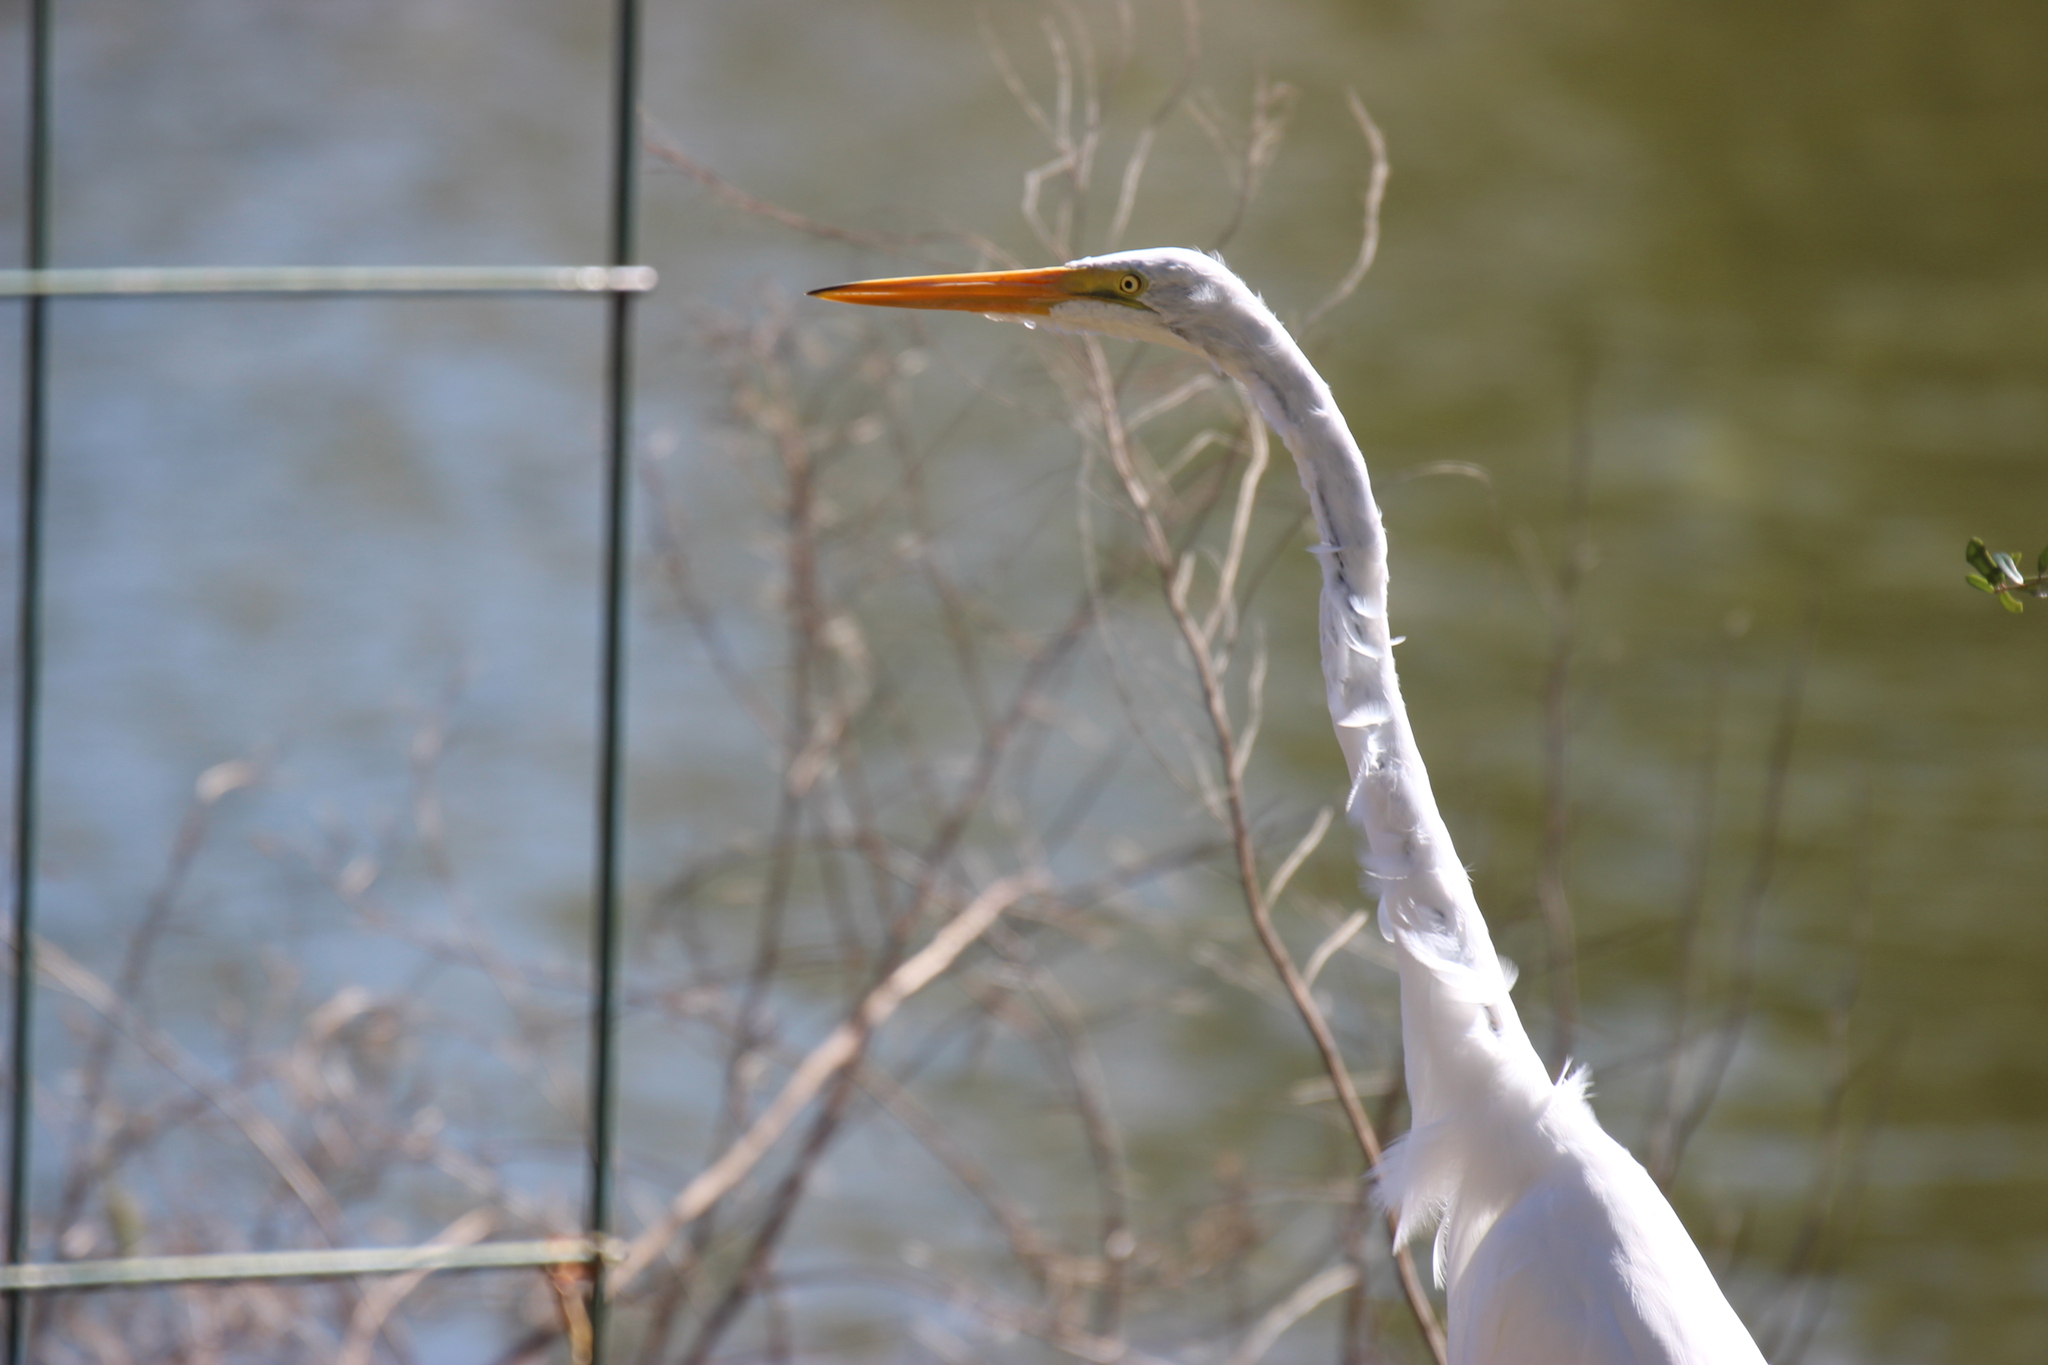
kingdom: Animalia
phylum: Chordata
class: Aves
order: Pelecaniformes
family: Ardeidae
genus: Ardea
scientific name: Ardea alba
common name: Great egret
